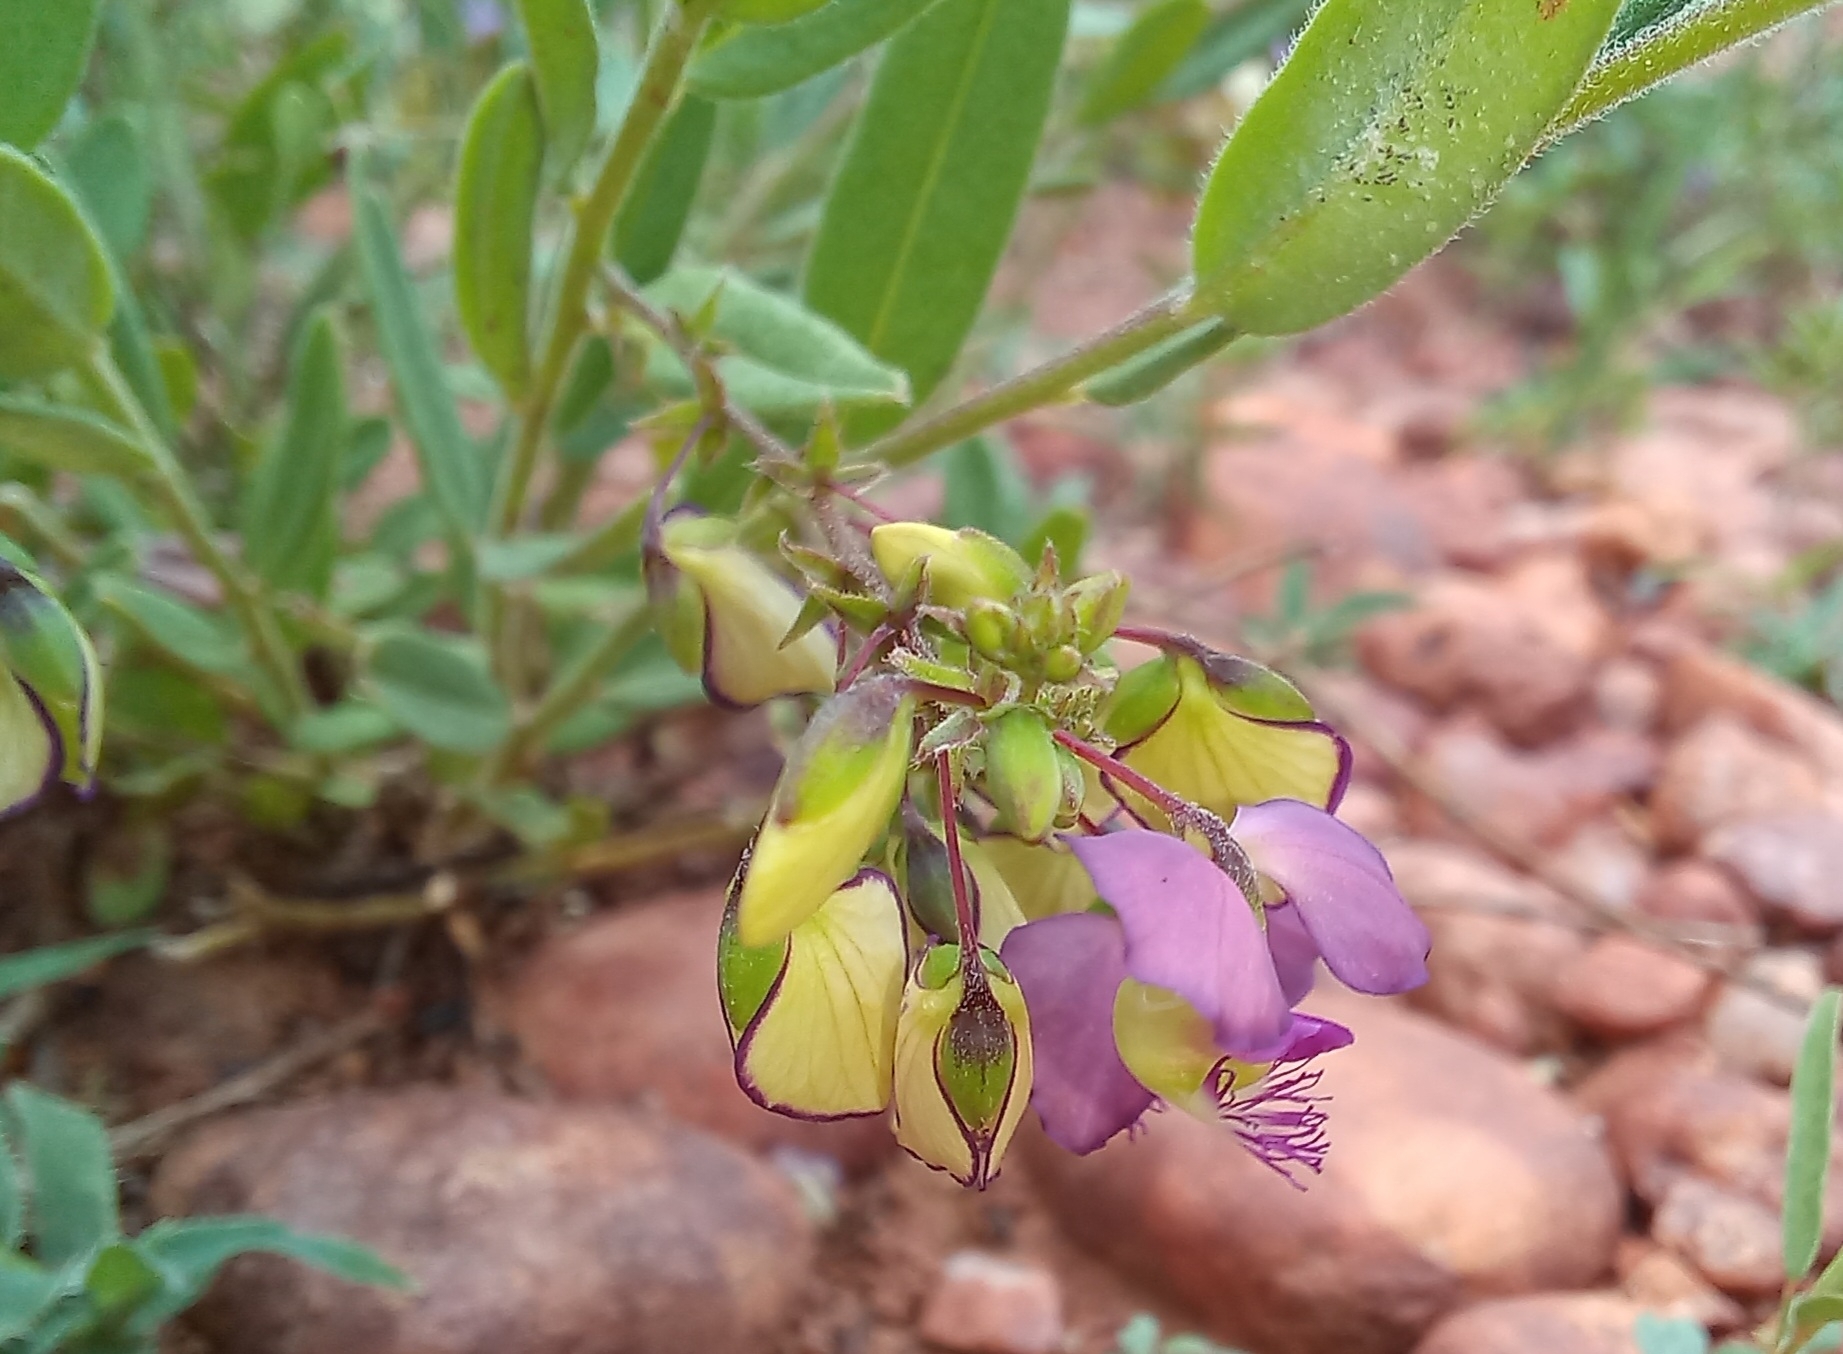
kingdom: Plantae
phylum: Tracheophyta
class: Magnoliopsida
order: Fabales
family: Polygalaceae
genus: Polygala
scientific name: Polygala sphenoptera
